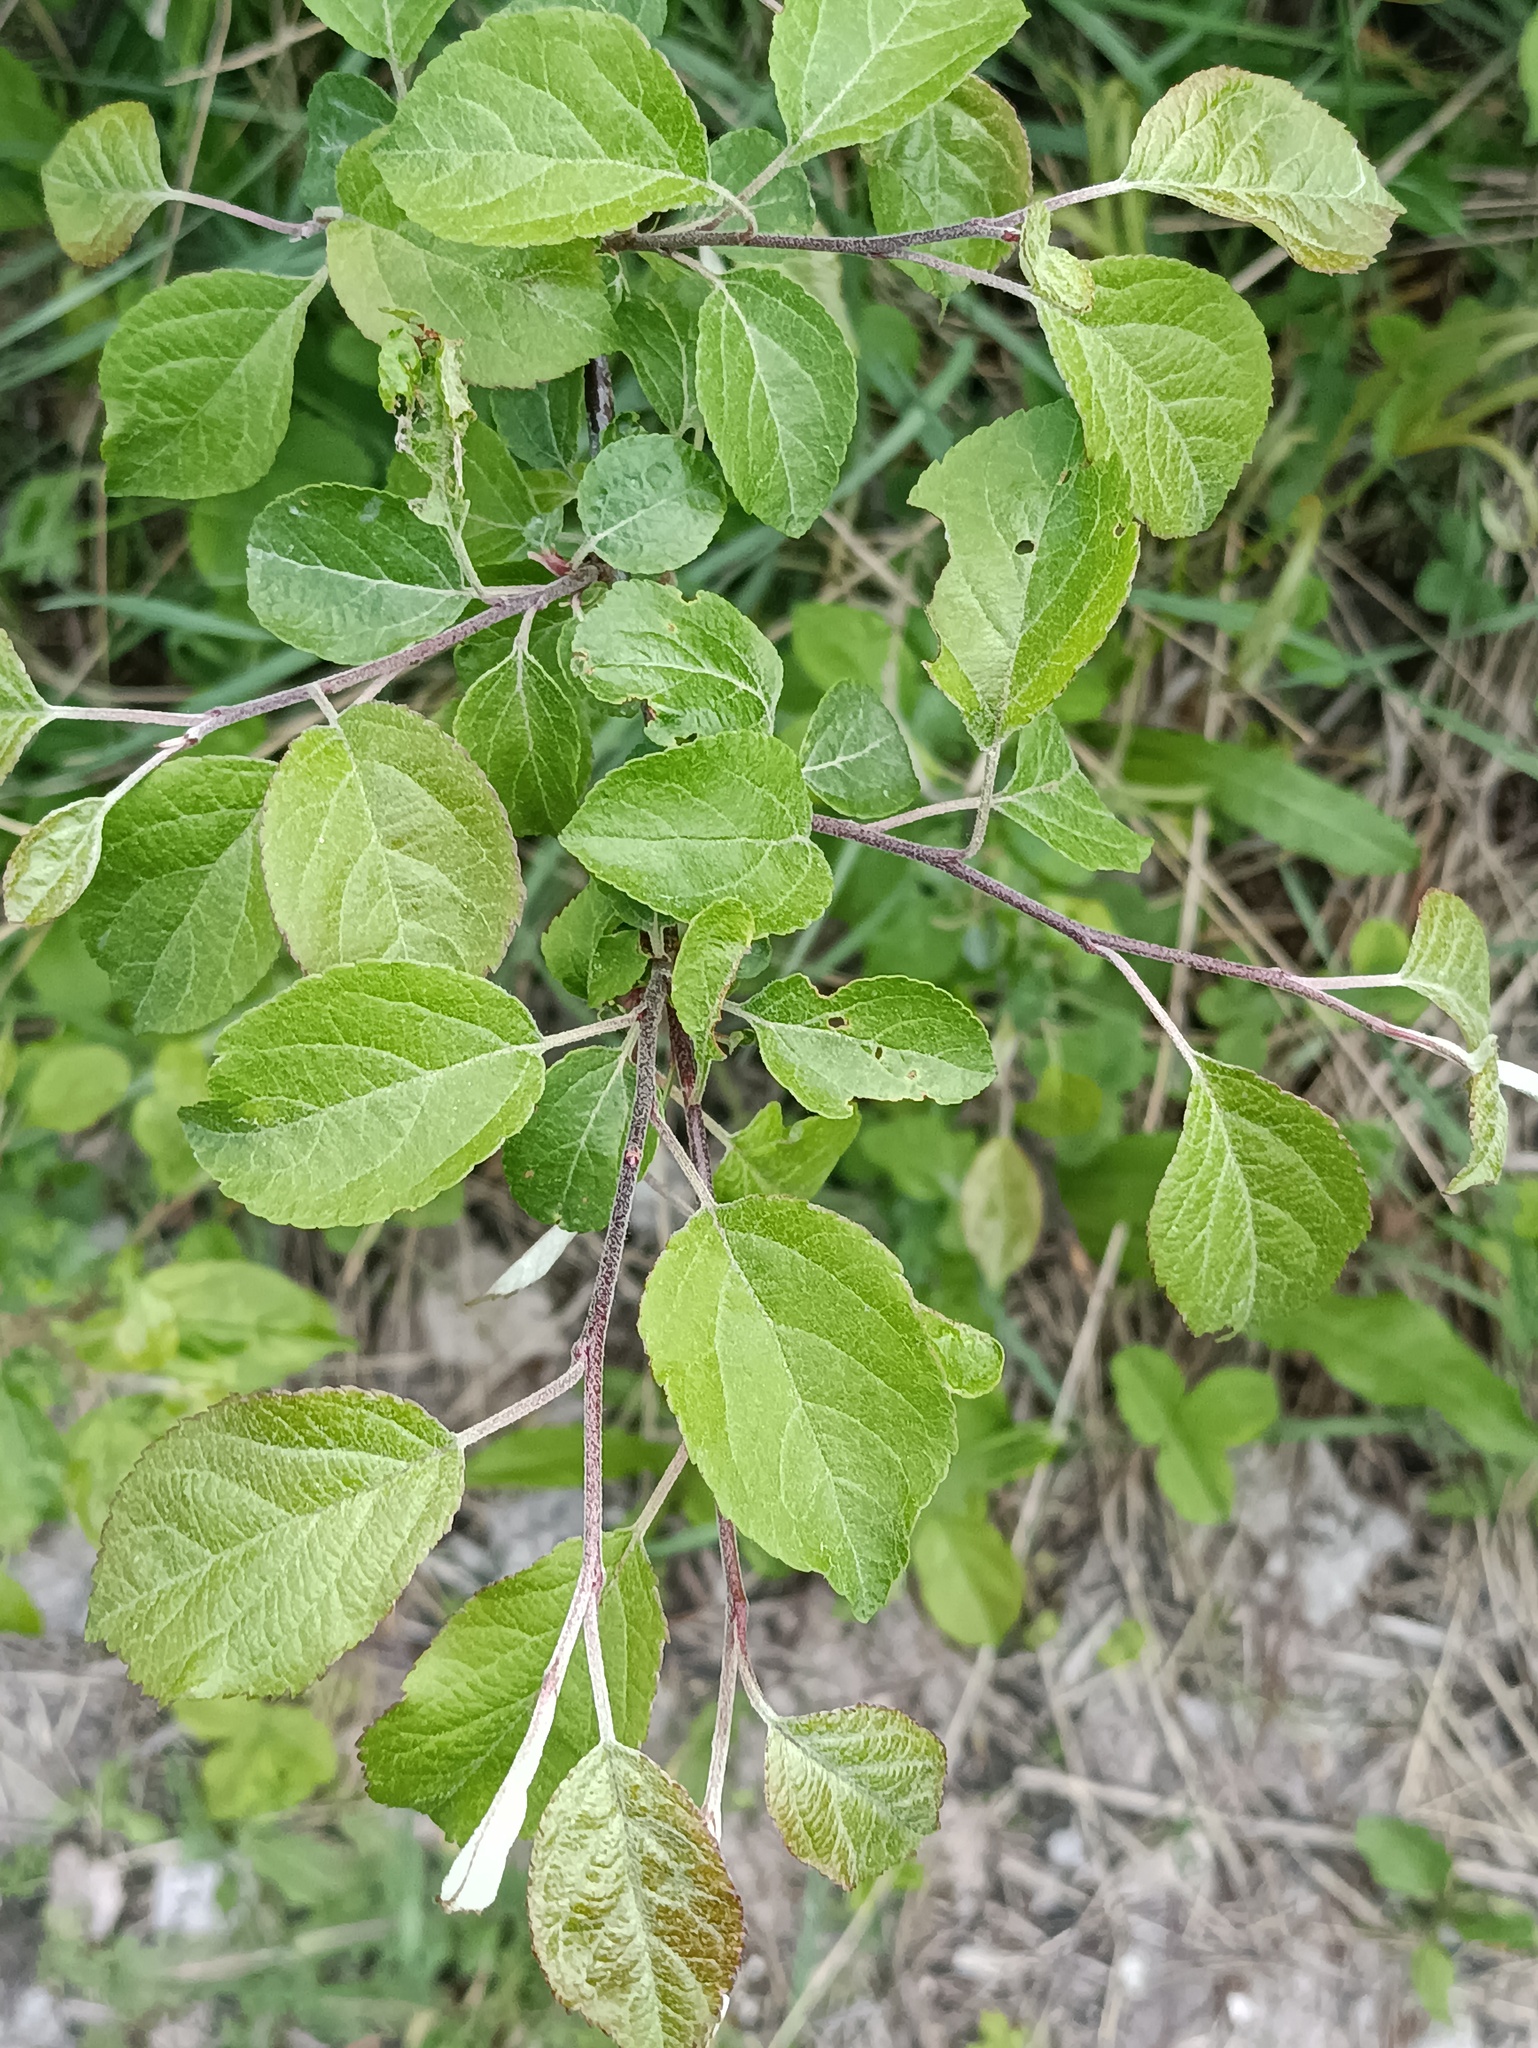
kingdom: Plantae
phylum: Tracheophyta
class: Magnoliopsida
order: Rosales
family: Rosaceae
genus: Malus
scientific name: Malus domestica
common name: Apple
